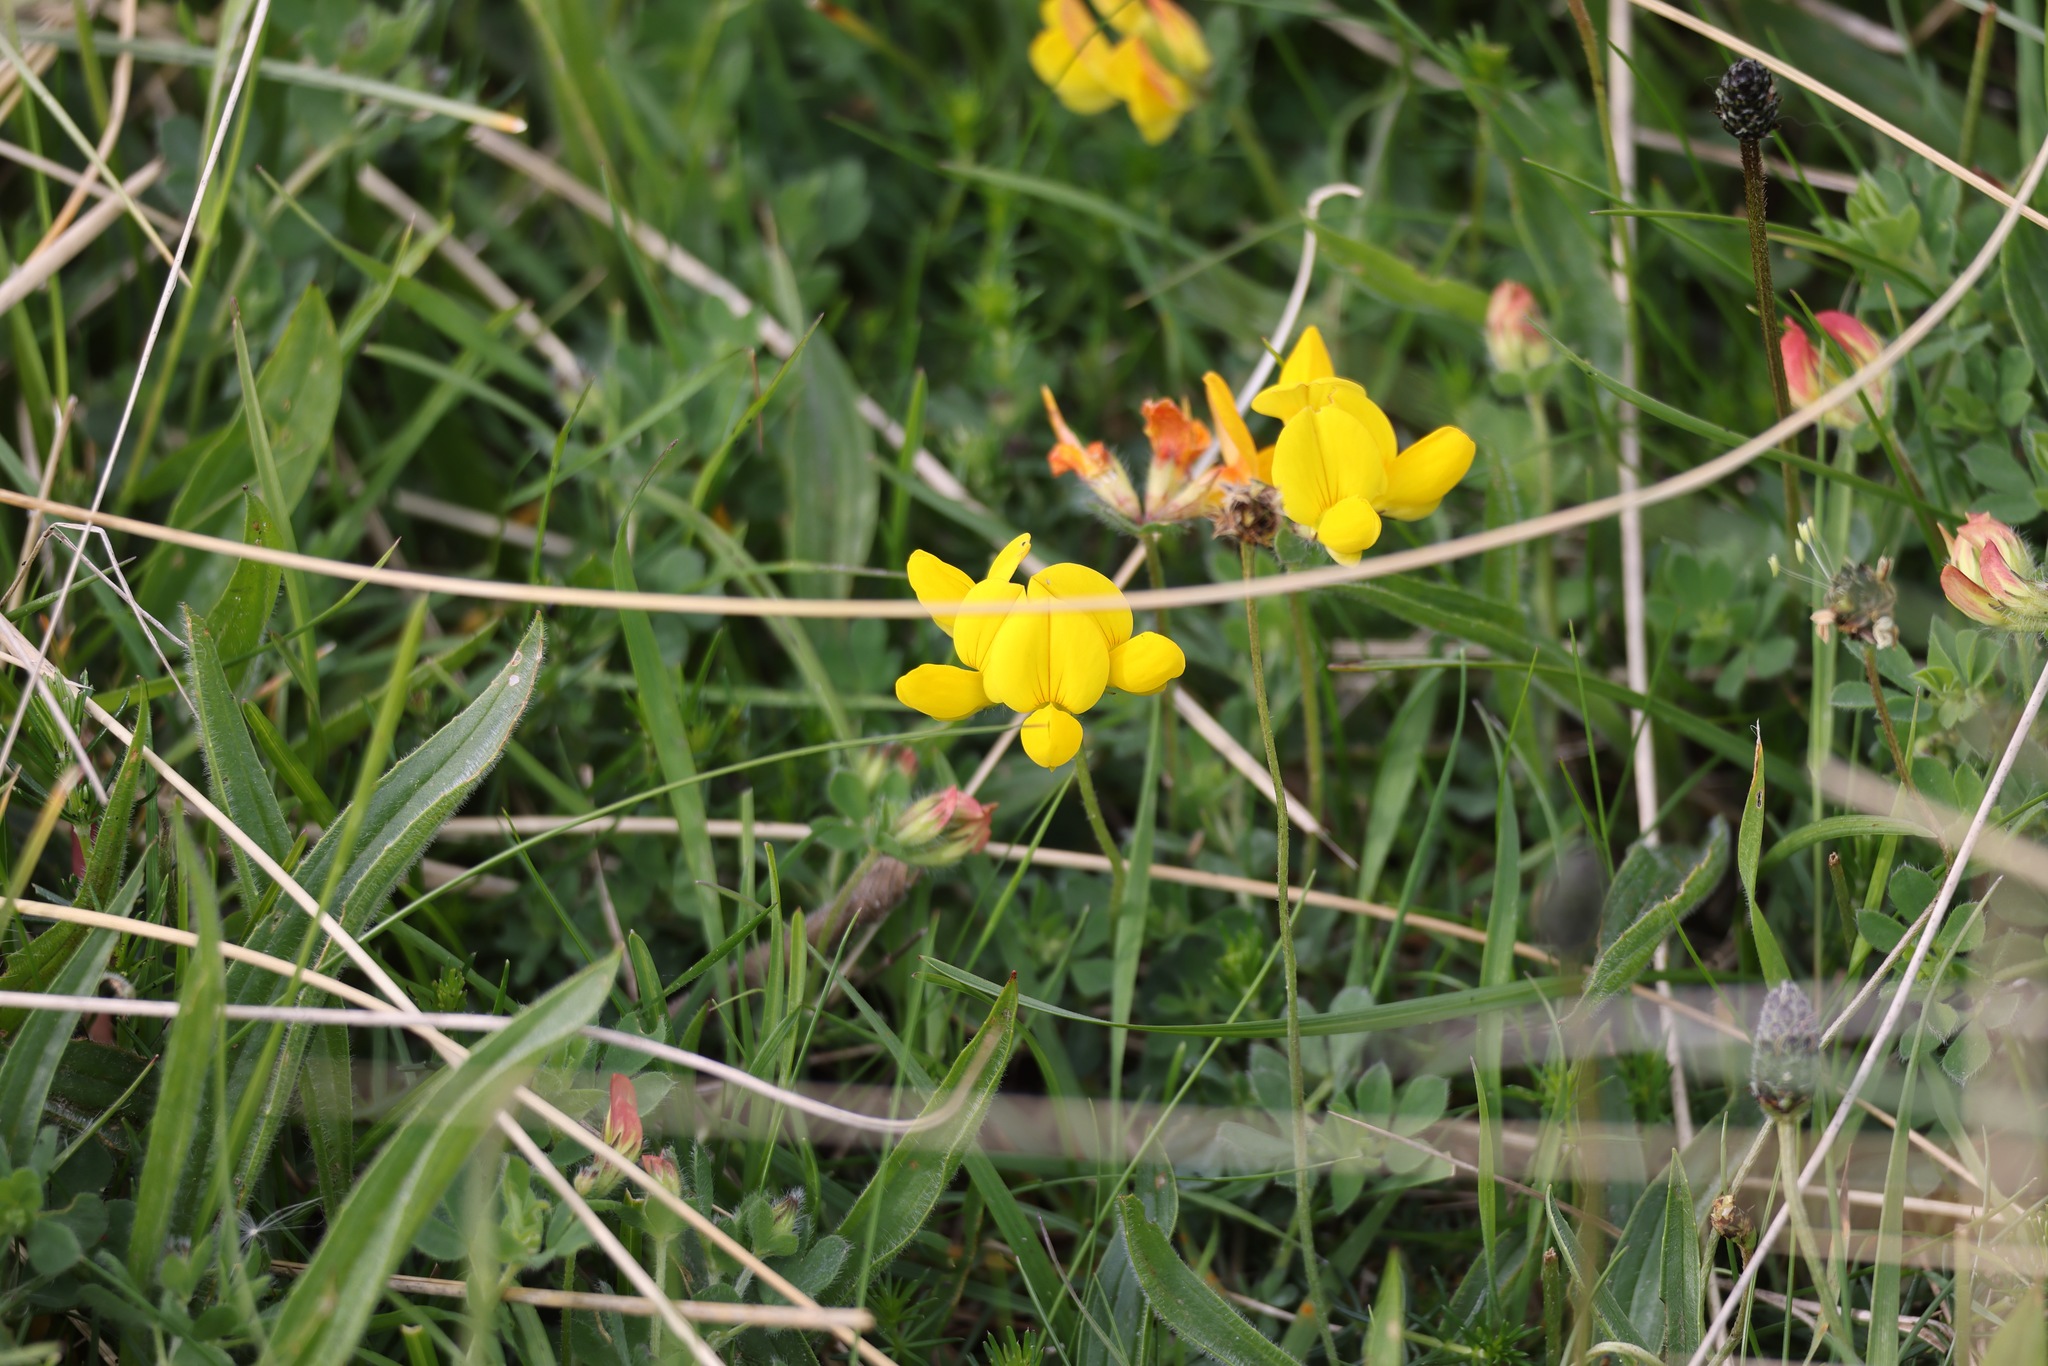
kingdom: Plantae
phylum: Tracheophyta
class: Magnoliopsida
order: Fabales
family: Fabaceae
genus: Lotus
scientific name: Lotus corniculatus
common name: Common bird's-foot-trefoil
